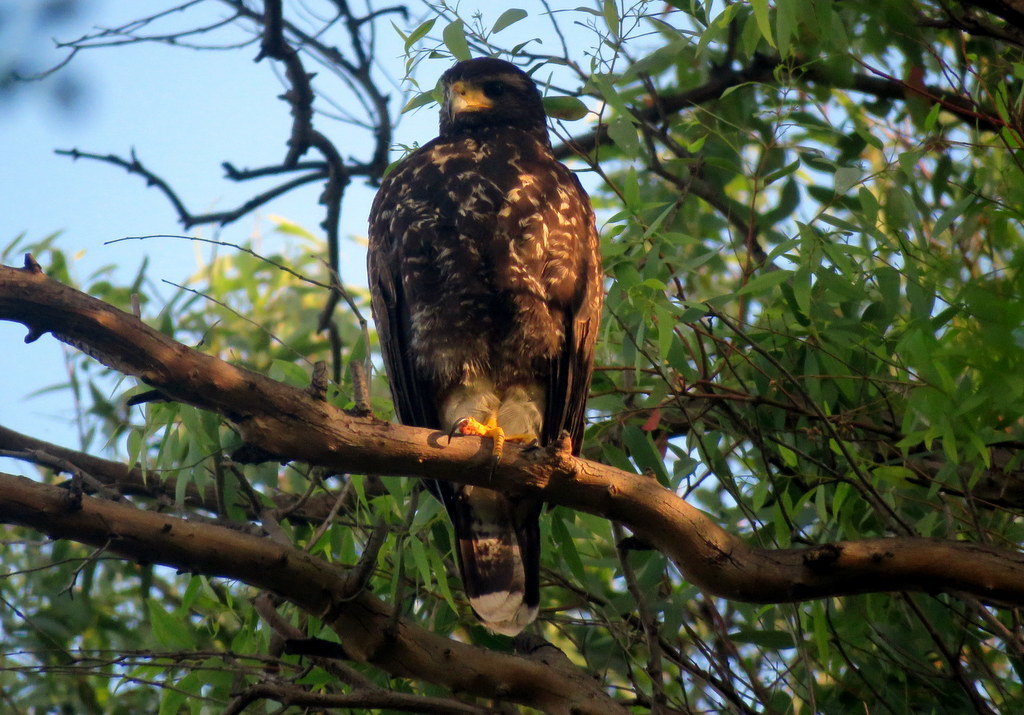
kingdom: Animalia
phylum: Chordata
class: Aves
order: Accipitriformes
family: Accipitridae
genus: Parabuteo
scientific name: Parabuteo unicinctus
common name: Harris's hawk
